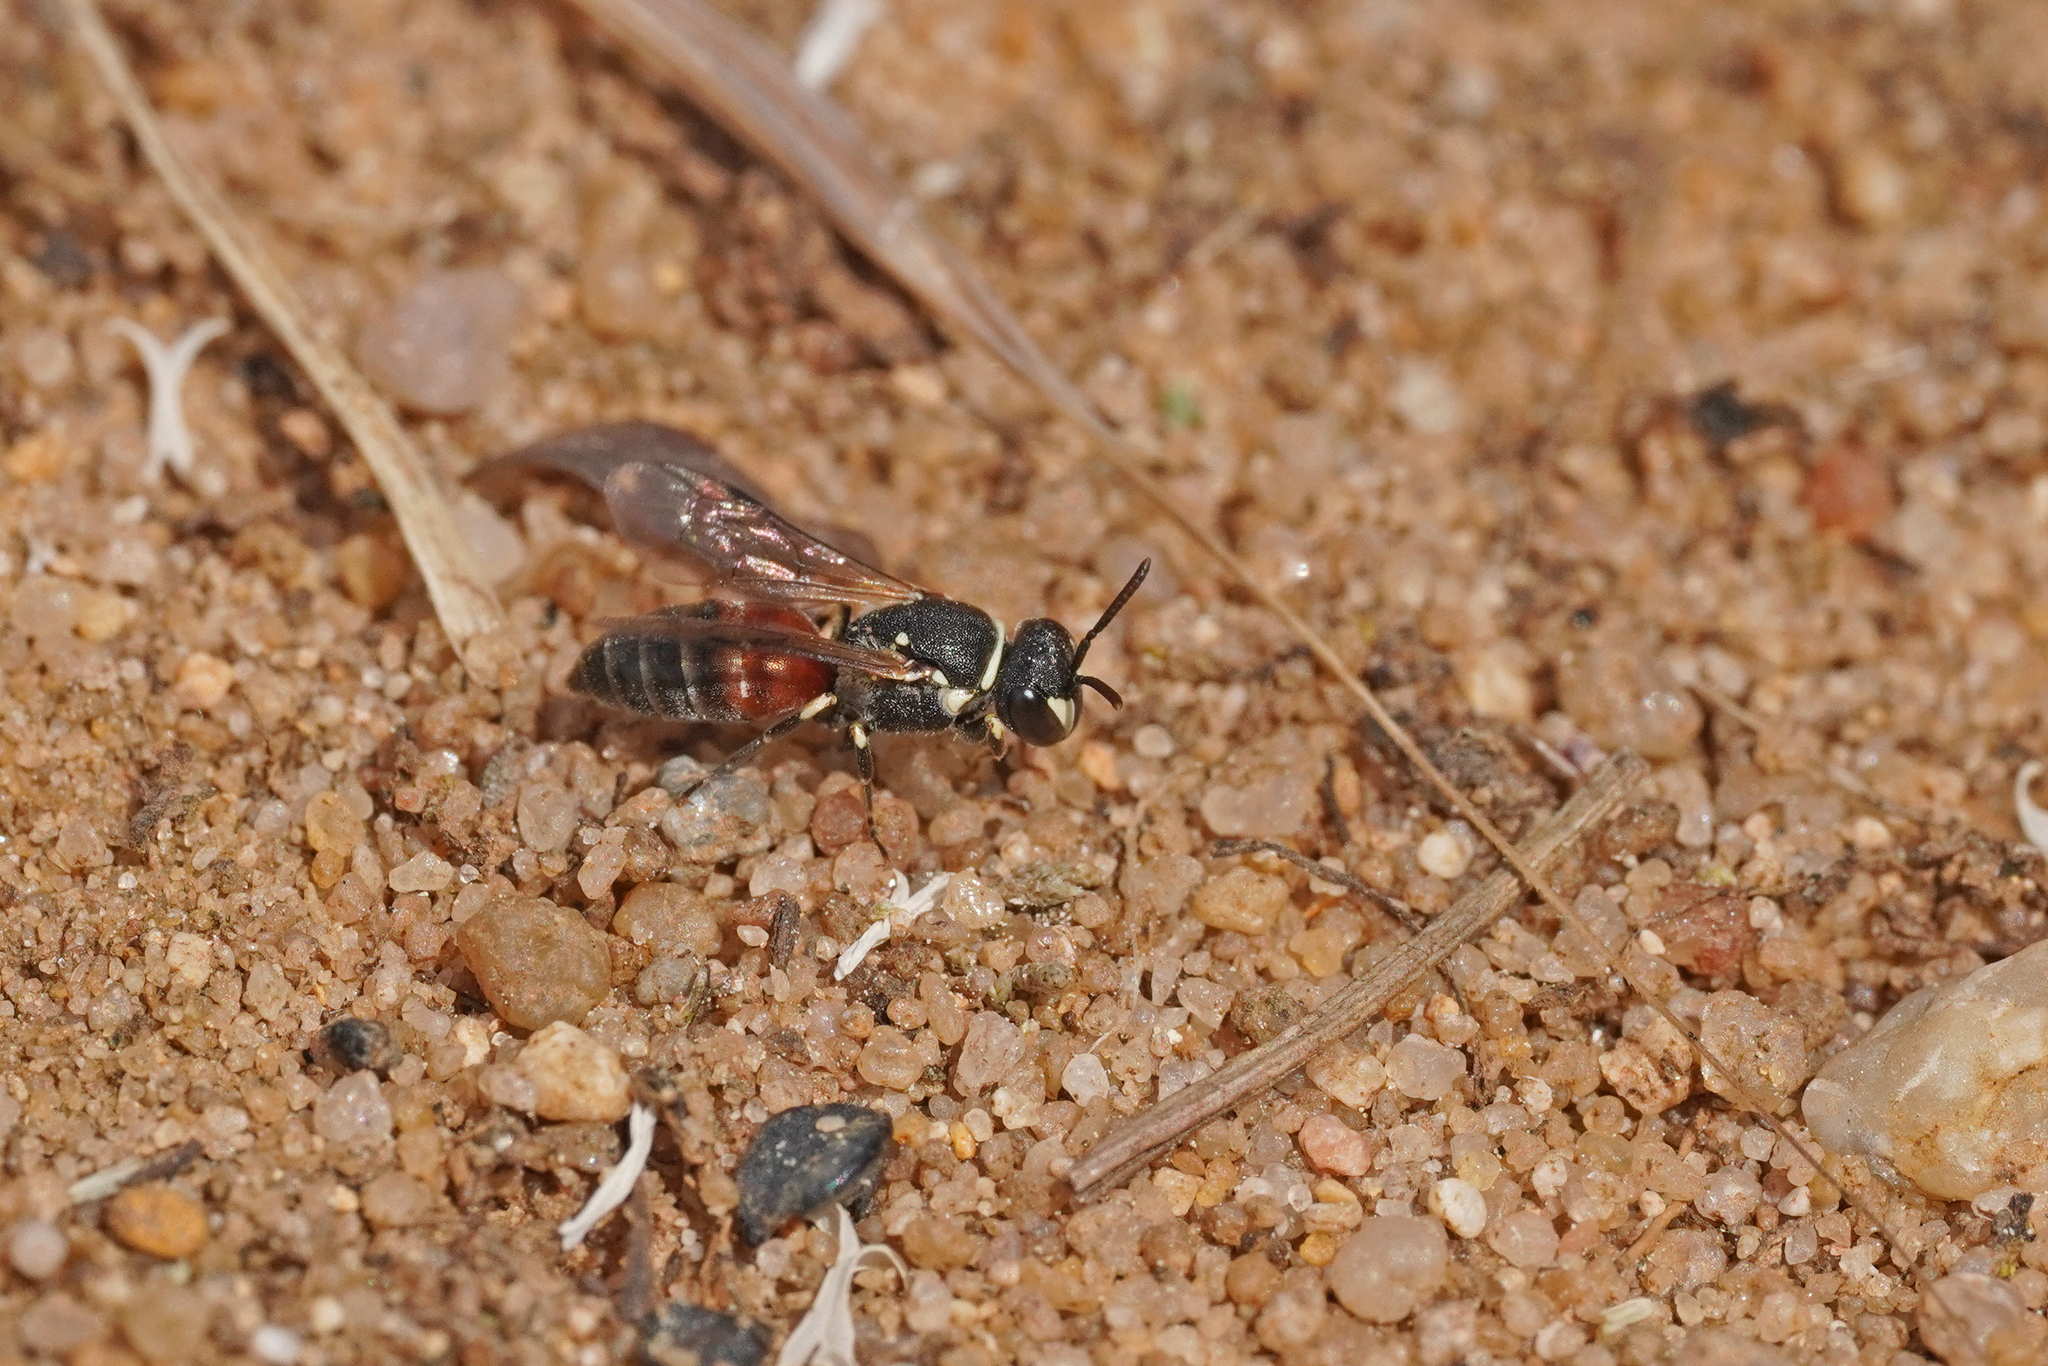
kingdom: Animalia
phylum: Arthropoda
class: Insecta
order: Hymenoptera
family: Colletidae
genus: Hylaeus
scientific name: Hylaeus variegatus
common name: Masked bee
